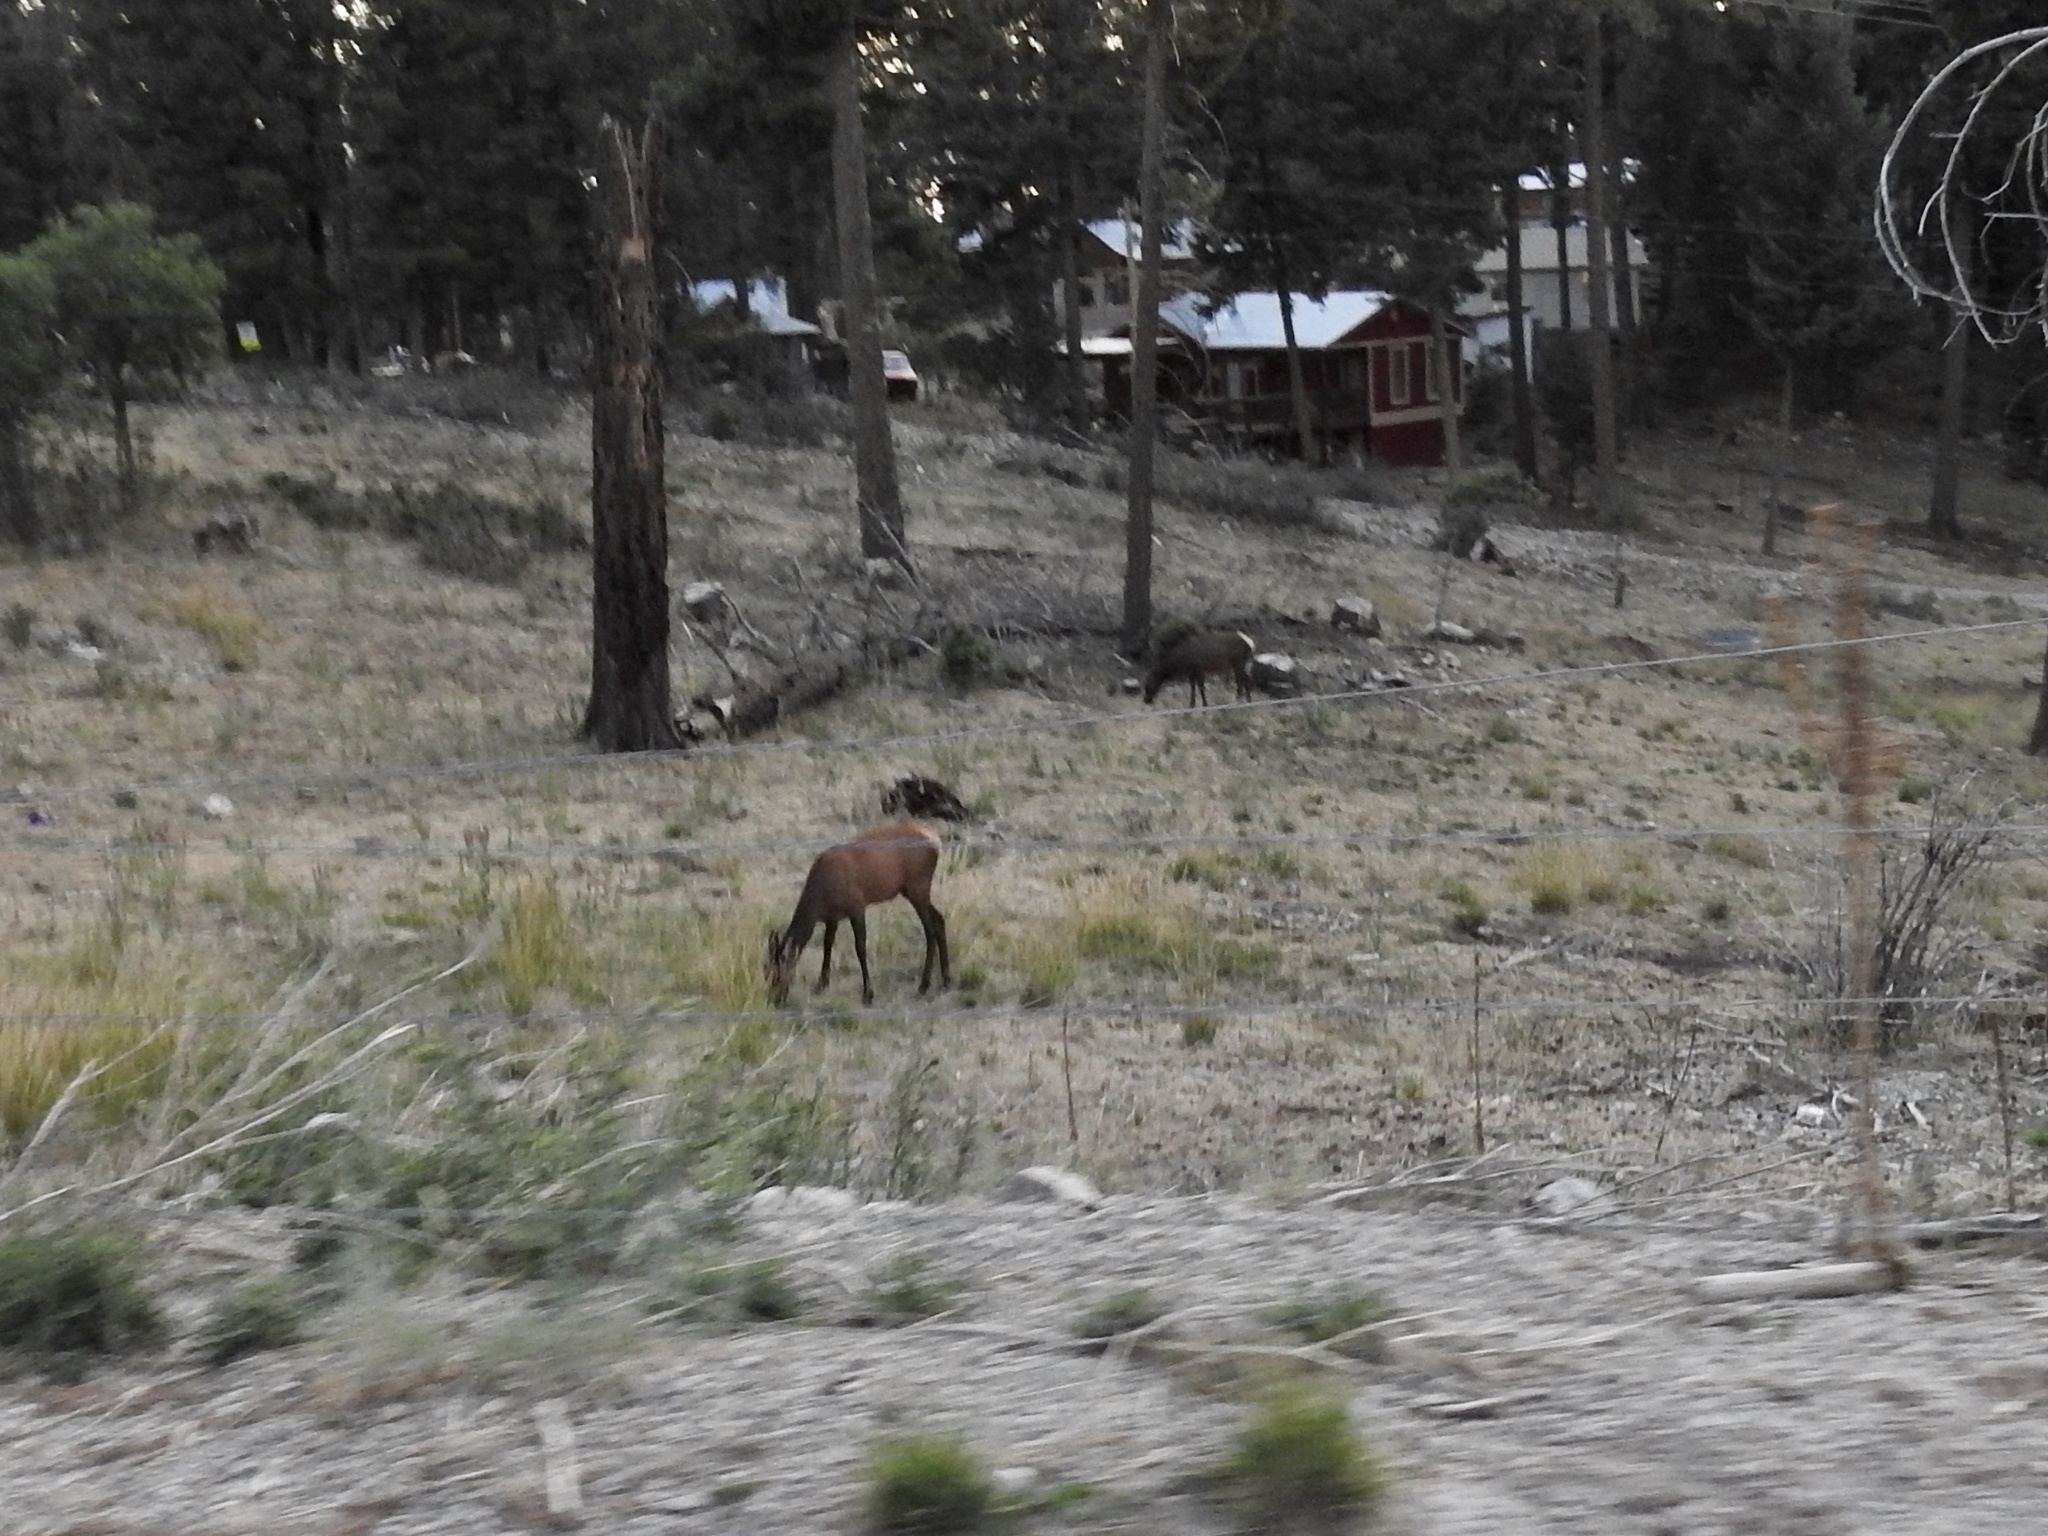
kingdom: Animalia
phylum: Chordata
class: Mammalia
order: Artiodactyla
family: Cervidae
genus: Cervus
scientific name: Cervus elaphus
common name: Red deer
